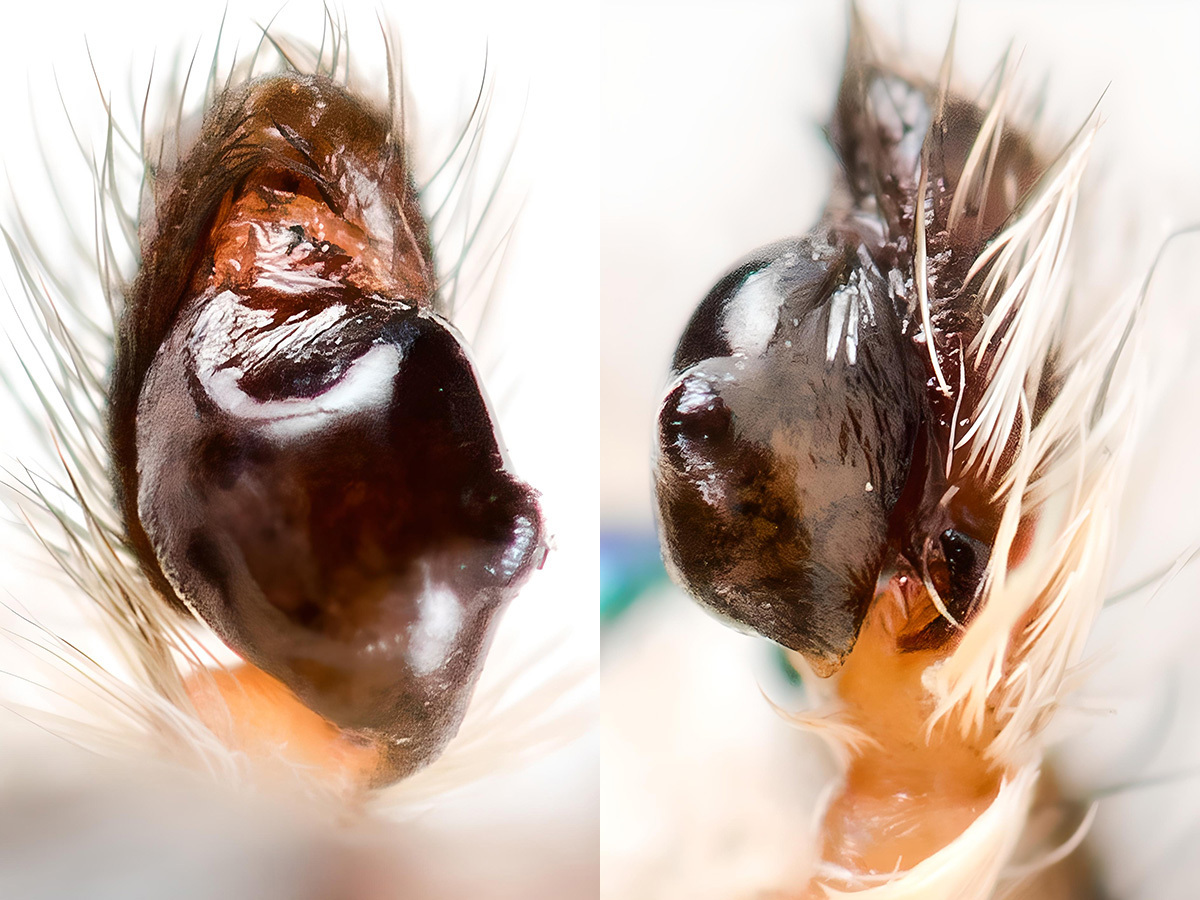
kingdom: Animalia
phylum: Arthropoda
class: Arachnida
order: Araneae
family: Salticidae
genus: Aelurillus
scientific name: Aelurillus concolor
